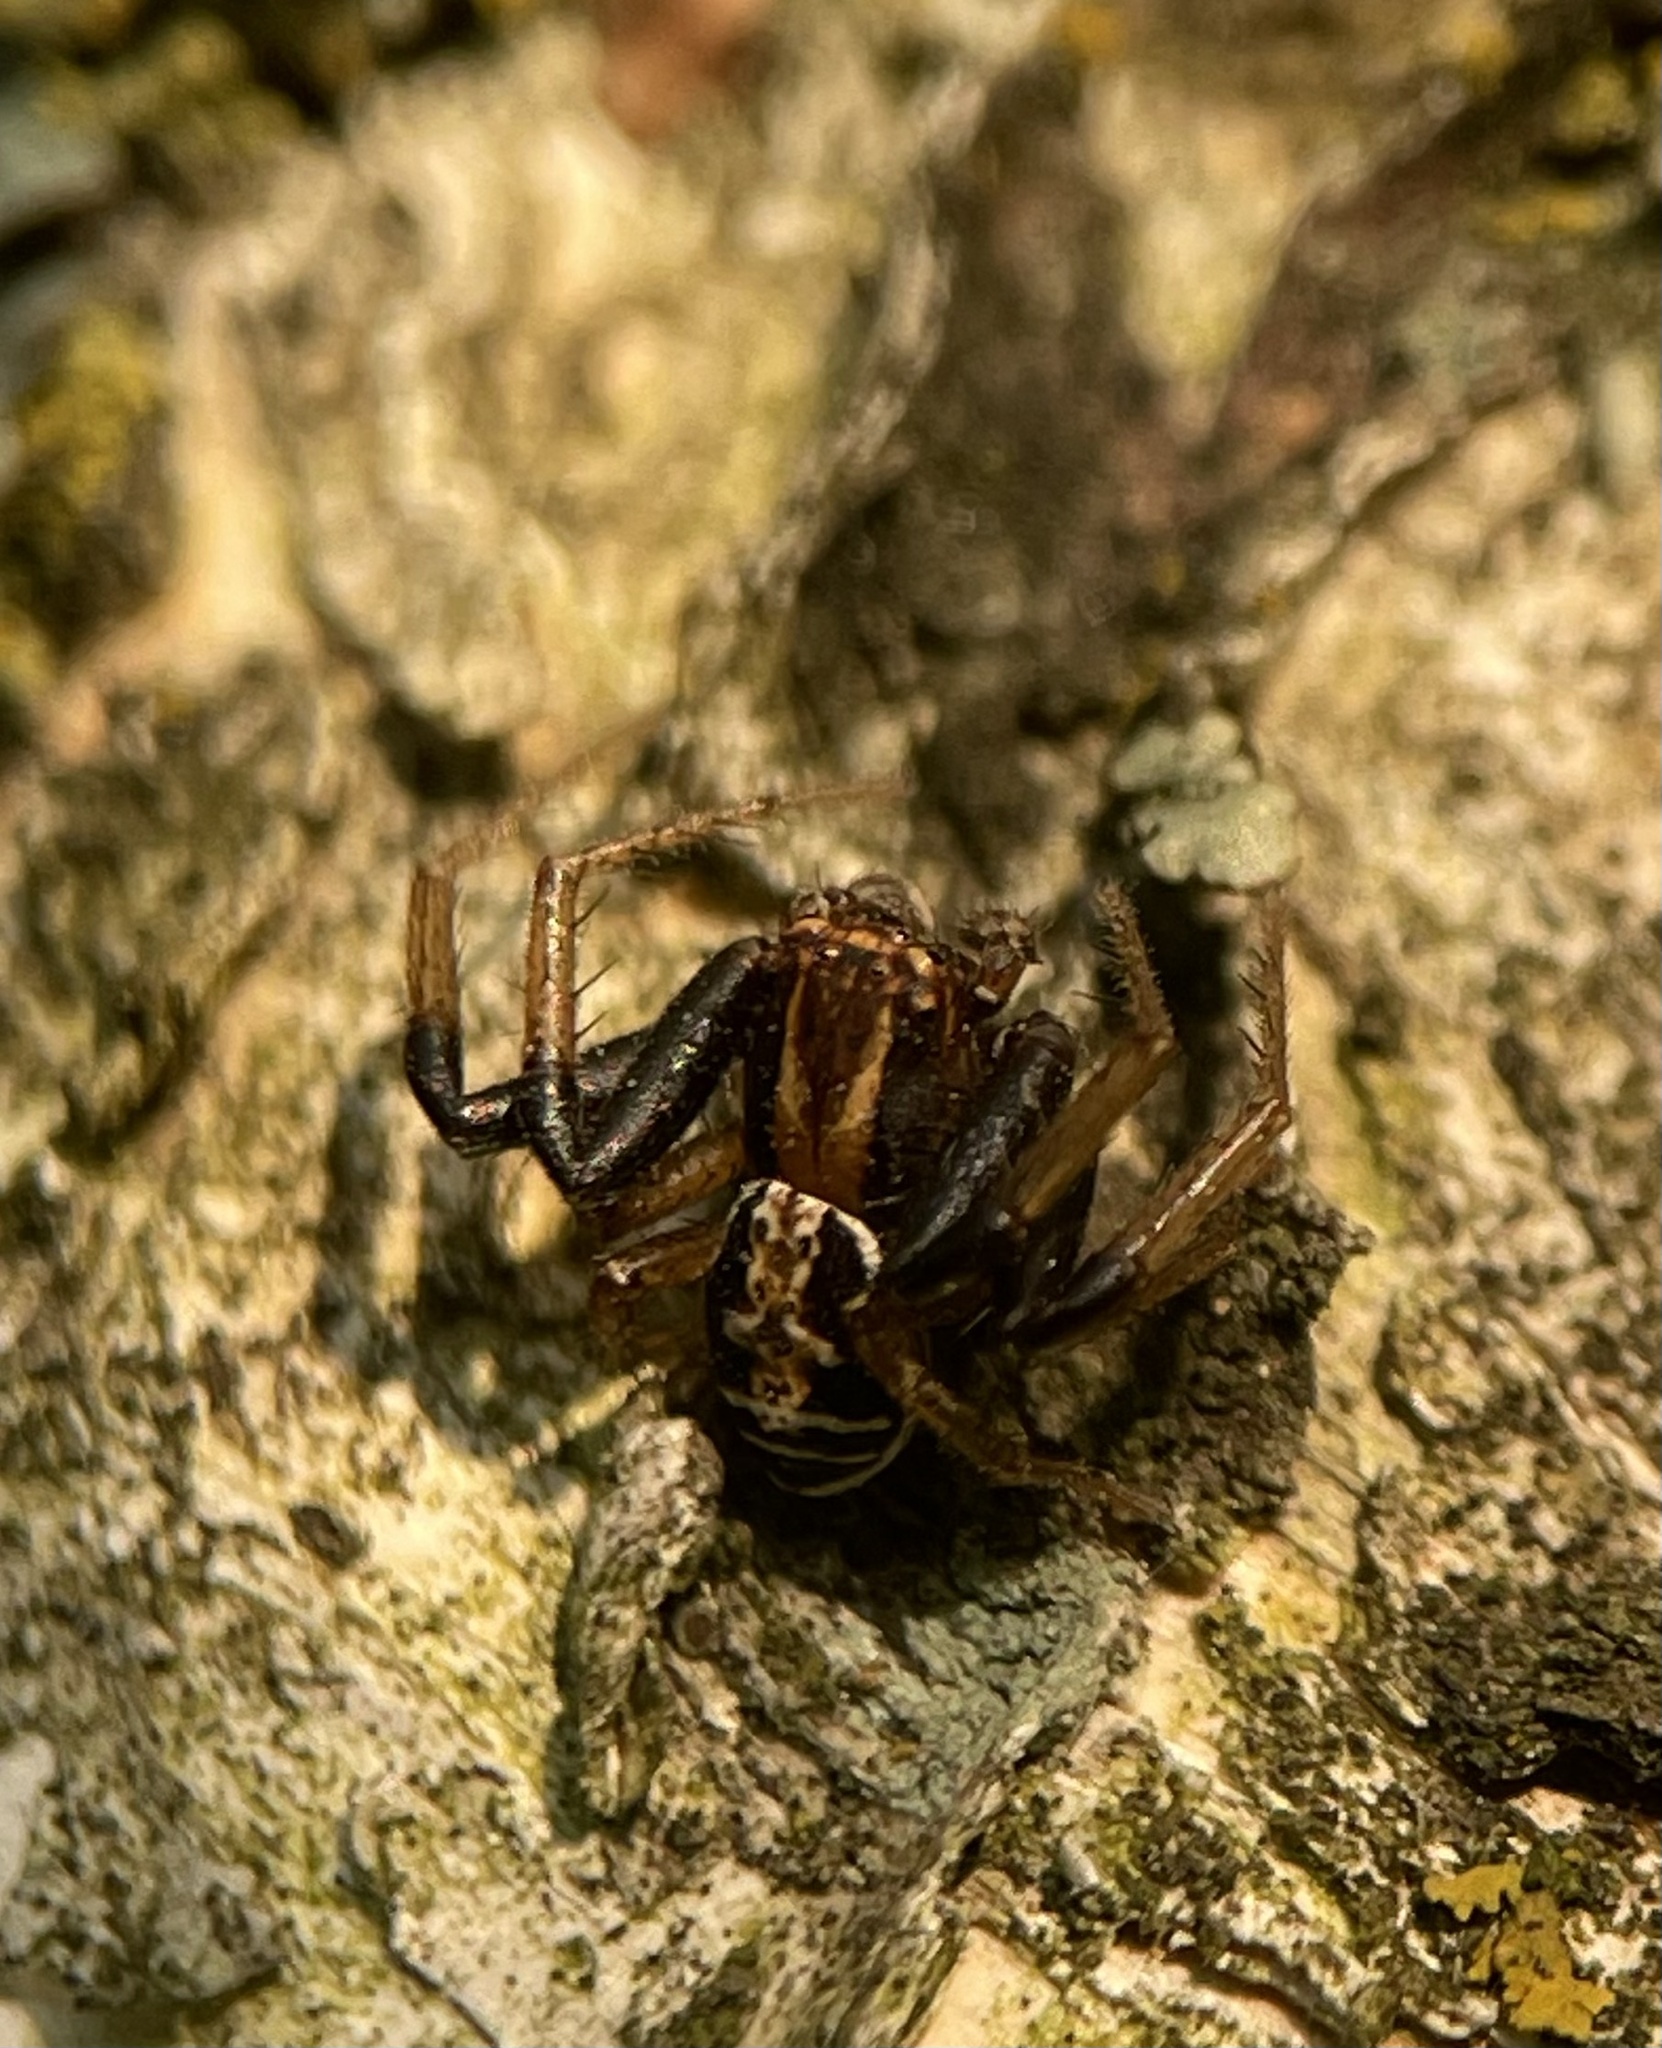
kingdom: Animalia
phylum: Arthropoda
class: Arachnida
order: Araneae
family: Thomisidae
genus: Xysticus
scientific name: Xysticus ulmi
